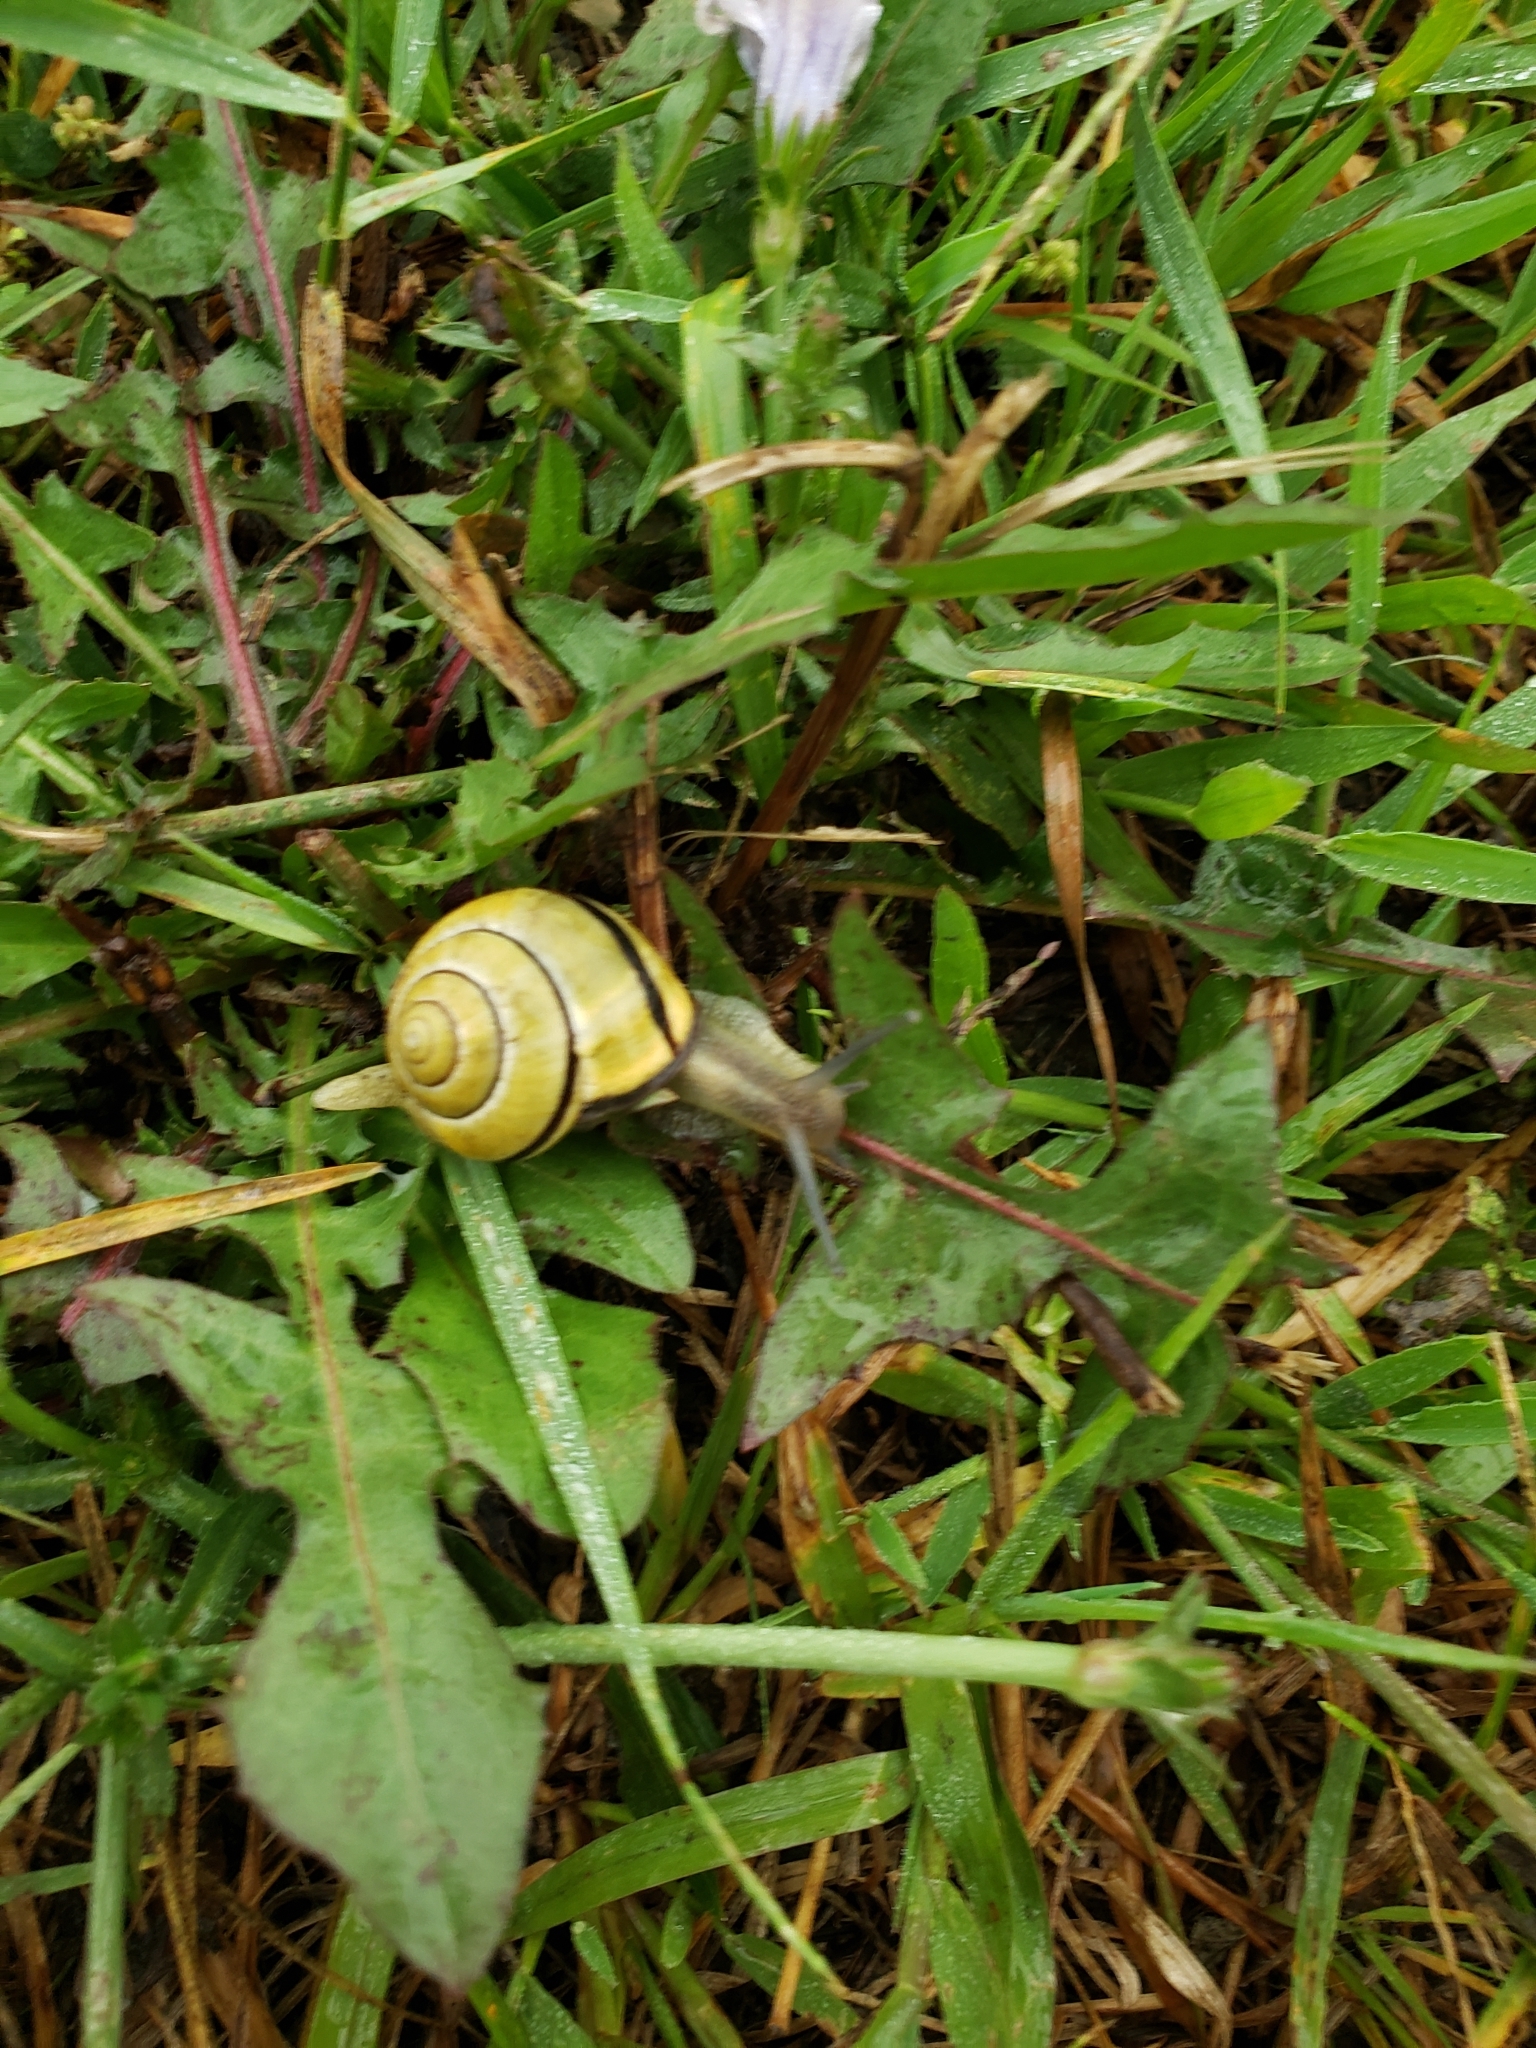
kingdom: Animalia
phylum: Mollusca
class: Gastropoda
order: Stylommatophora
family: Helicidae
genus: Cepaea
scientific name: Cepaea nemoralis
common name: Grovesnail
